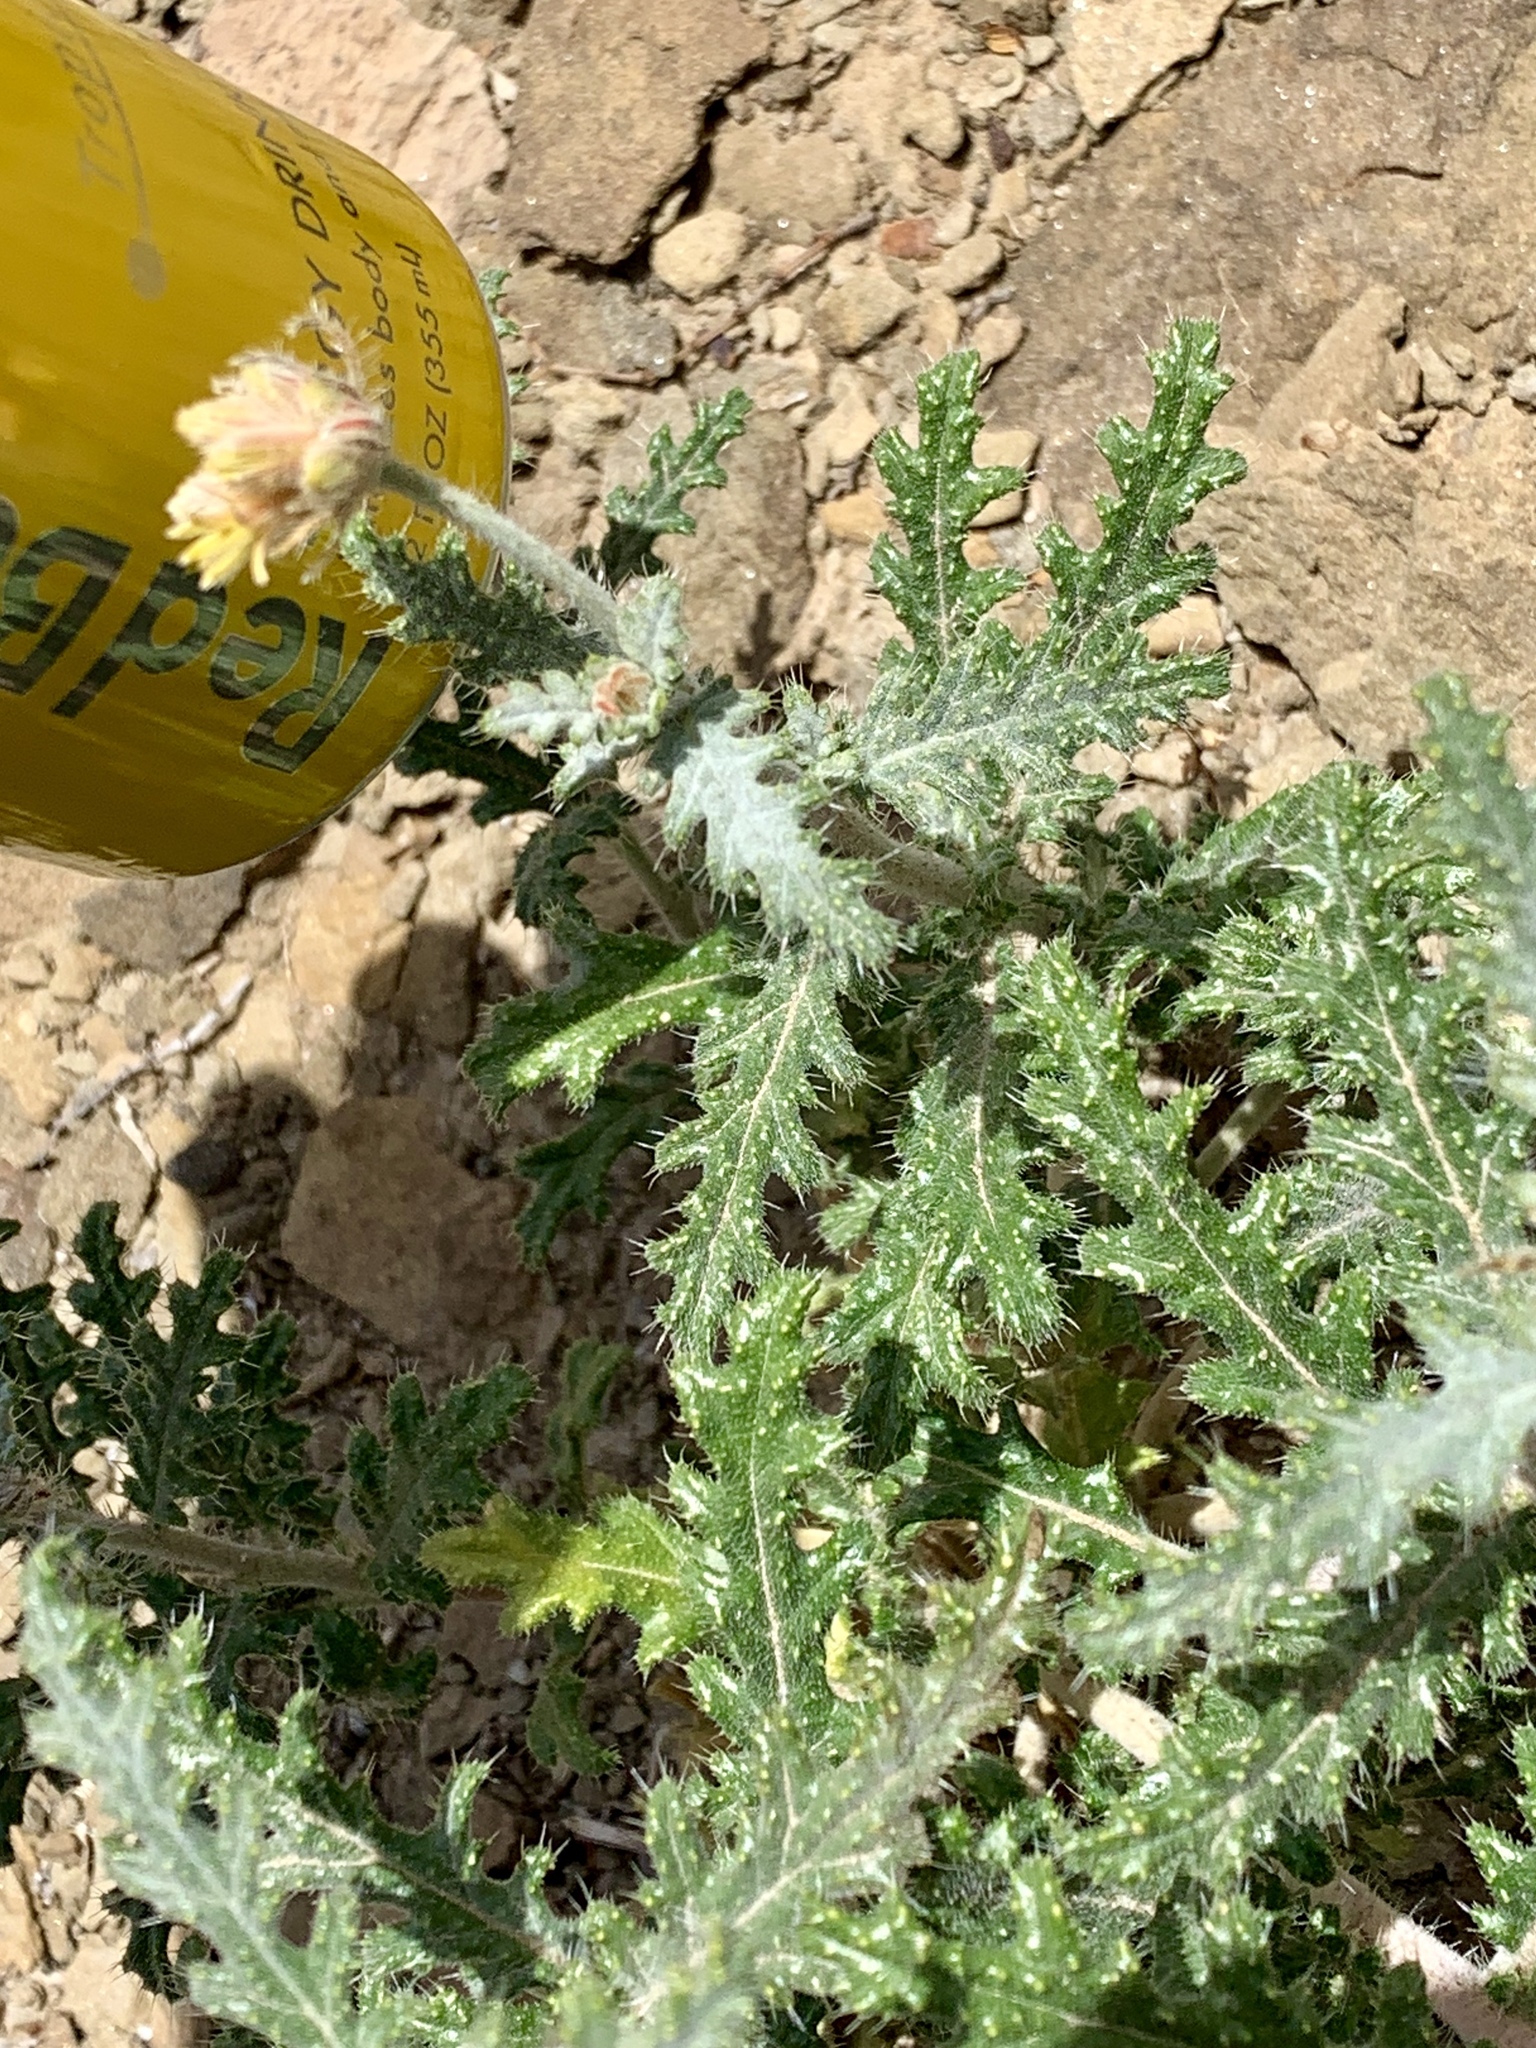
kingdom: Plantae
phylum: Tracheophyta
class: Magnoliopsida
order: Cornales
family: Loasaceae
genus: Cevallia
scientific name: Cevallia sinuata
